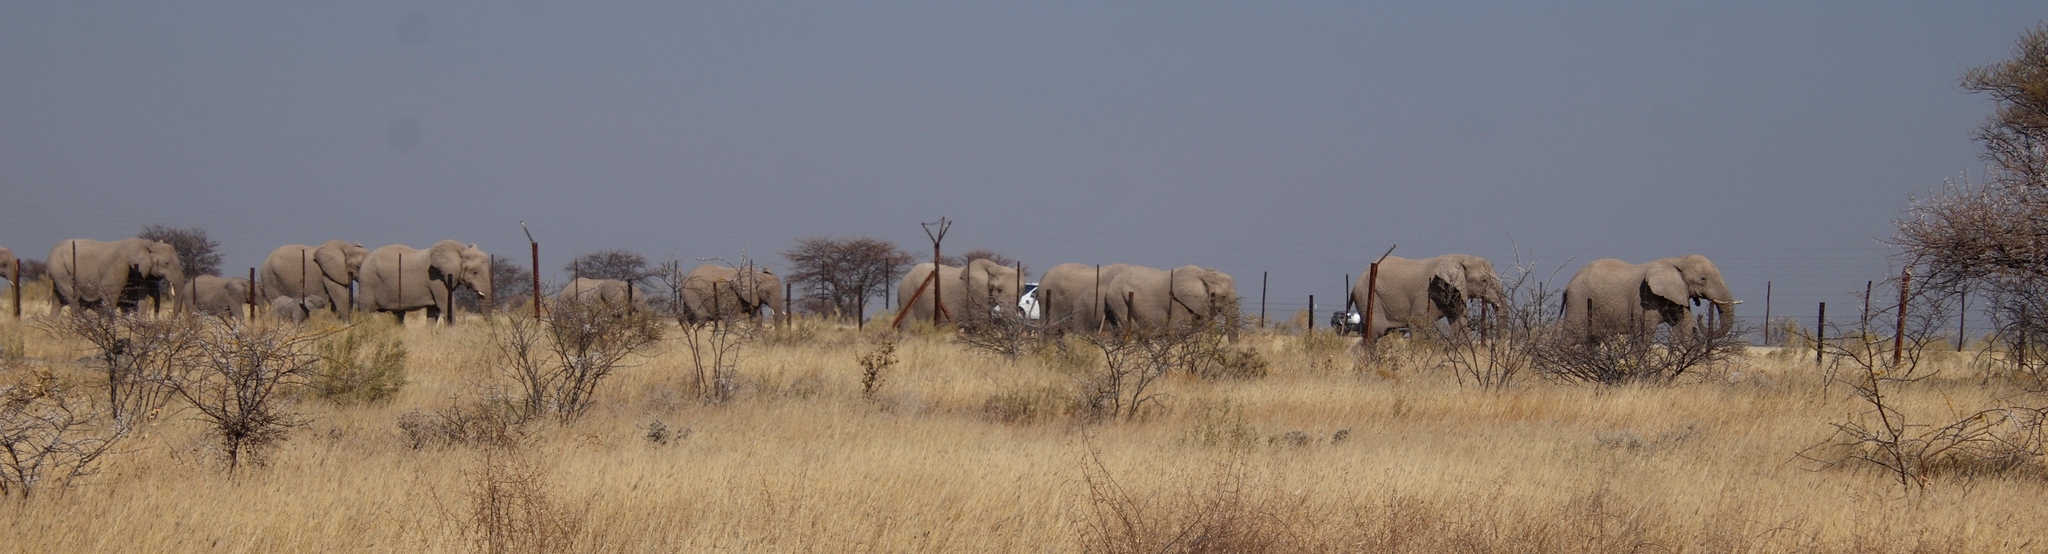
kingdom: Animalia
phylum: Chordata
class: Mammalia
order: Proboscidea
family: Elephantidae
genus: Loxodonta
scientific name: Loxodonta africana
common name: African elephant
